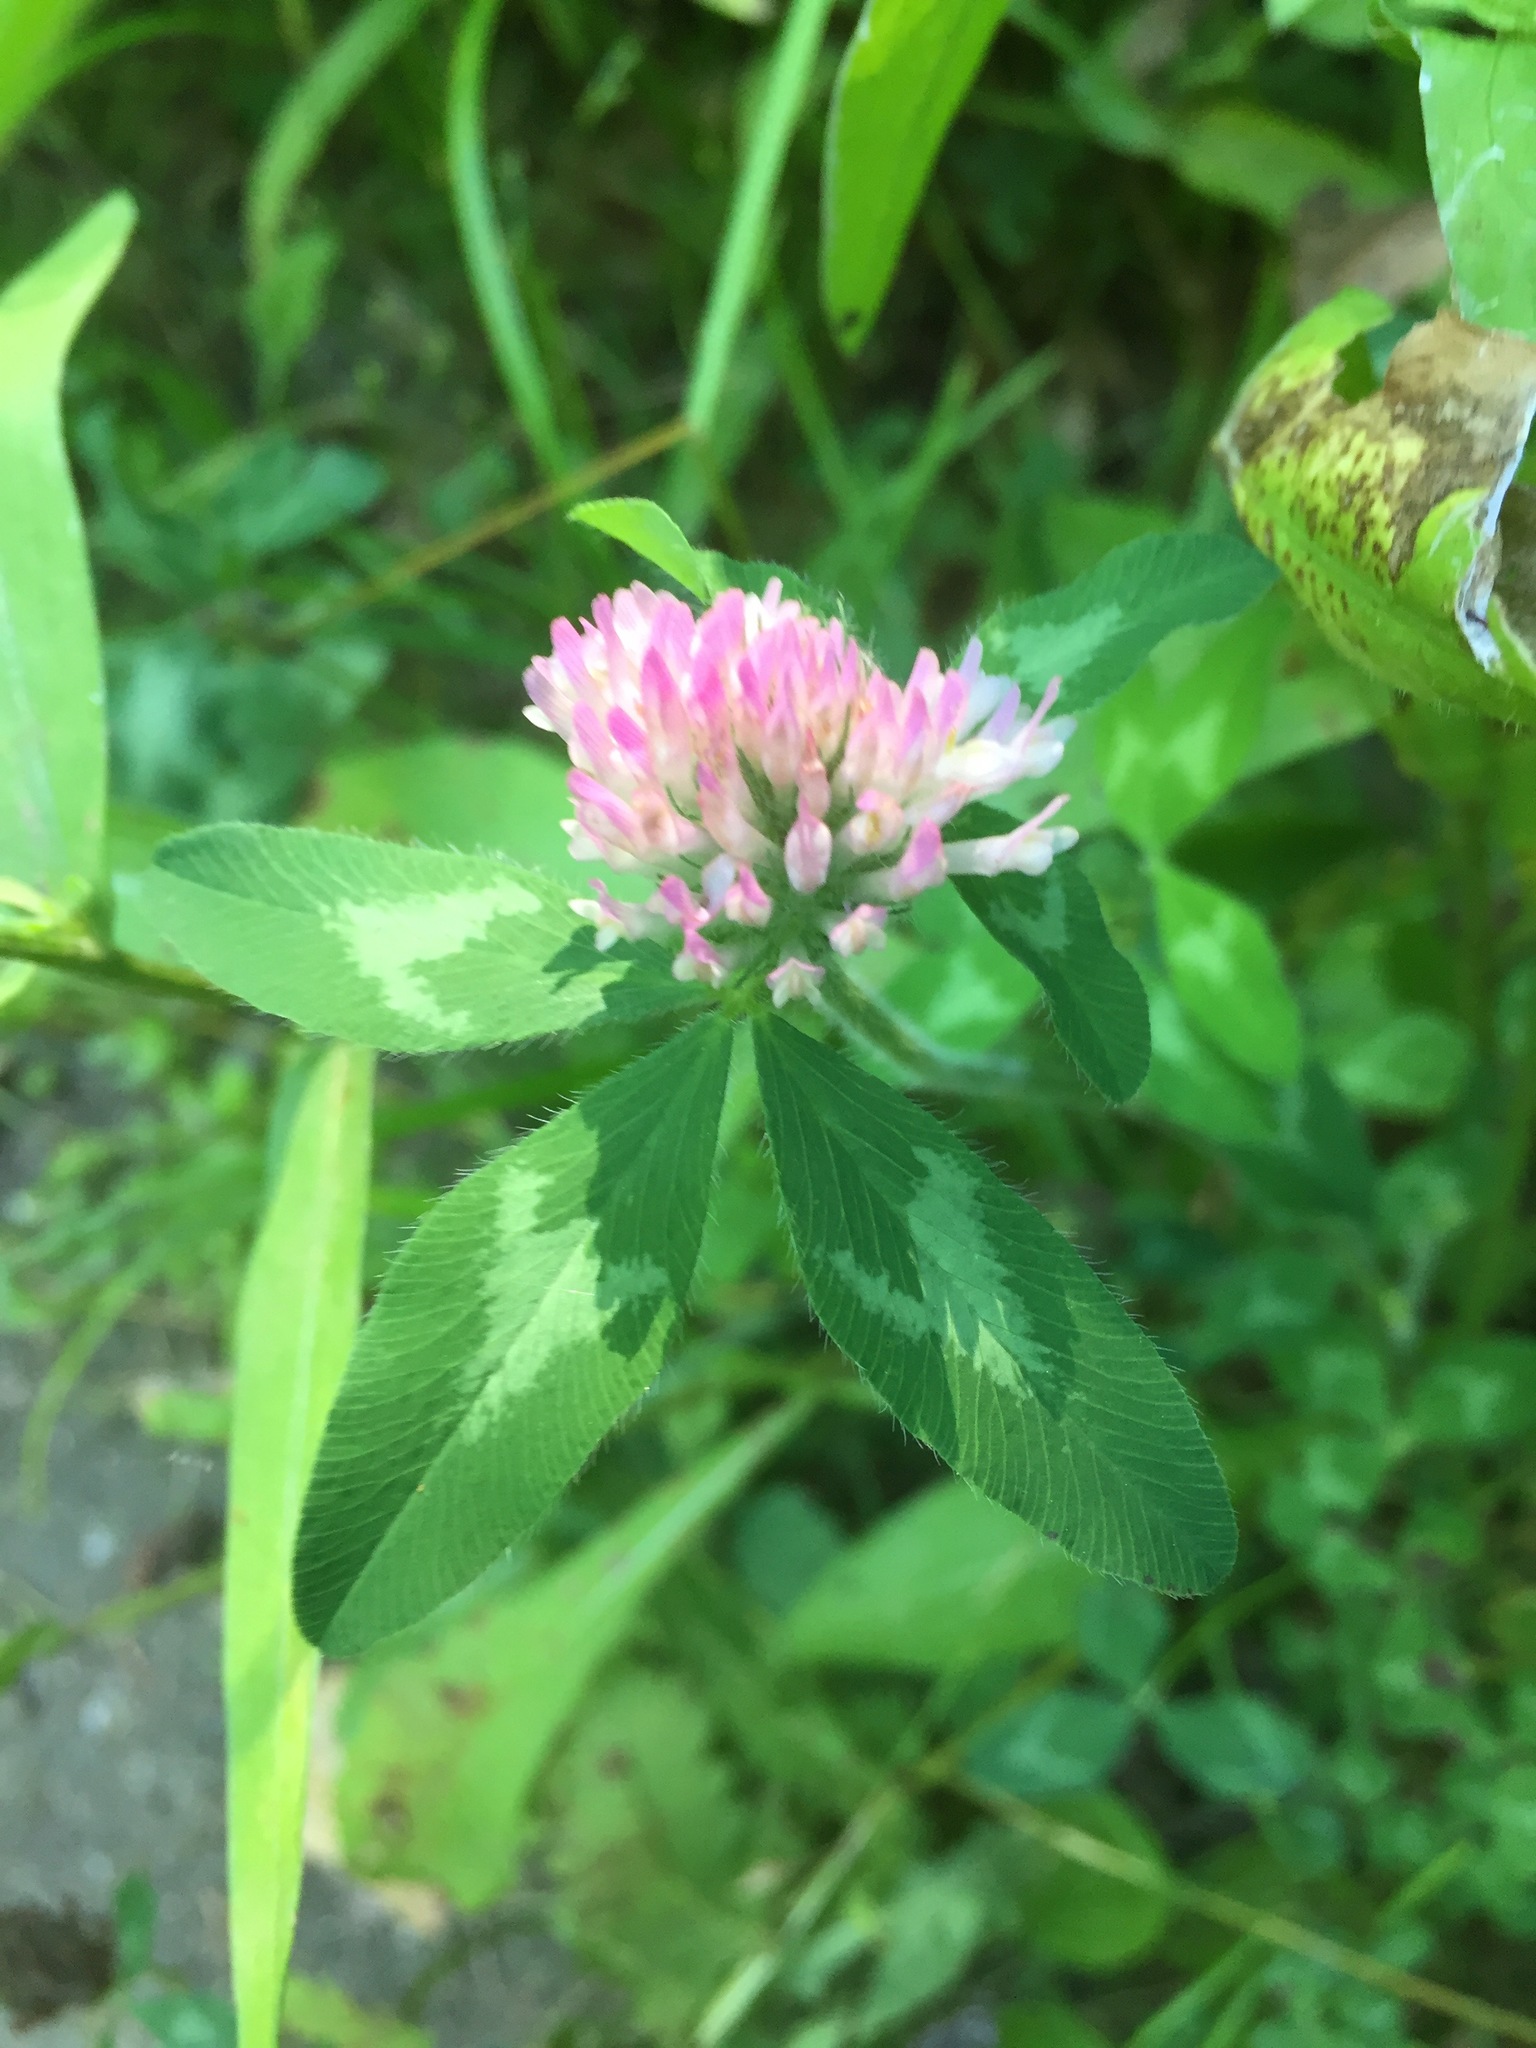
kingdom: Plantae
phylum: Tracheophyta
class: Magnoliopsida
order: Fabales
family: Fabaceae
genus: Trifolium
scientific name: Trifolium pratense
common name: Red clover
